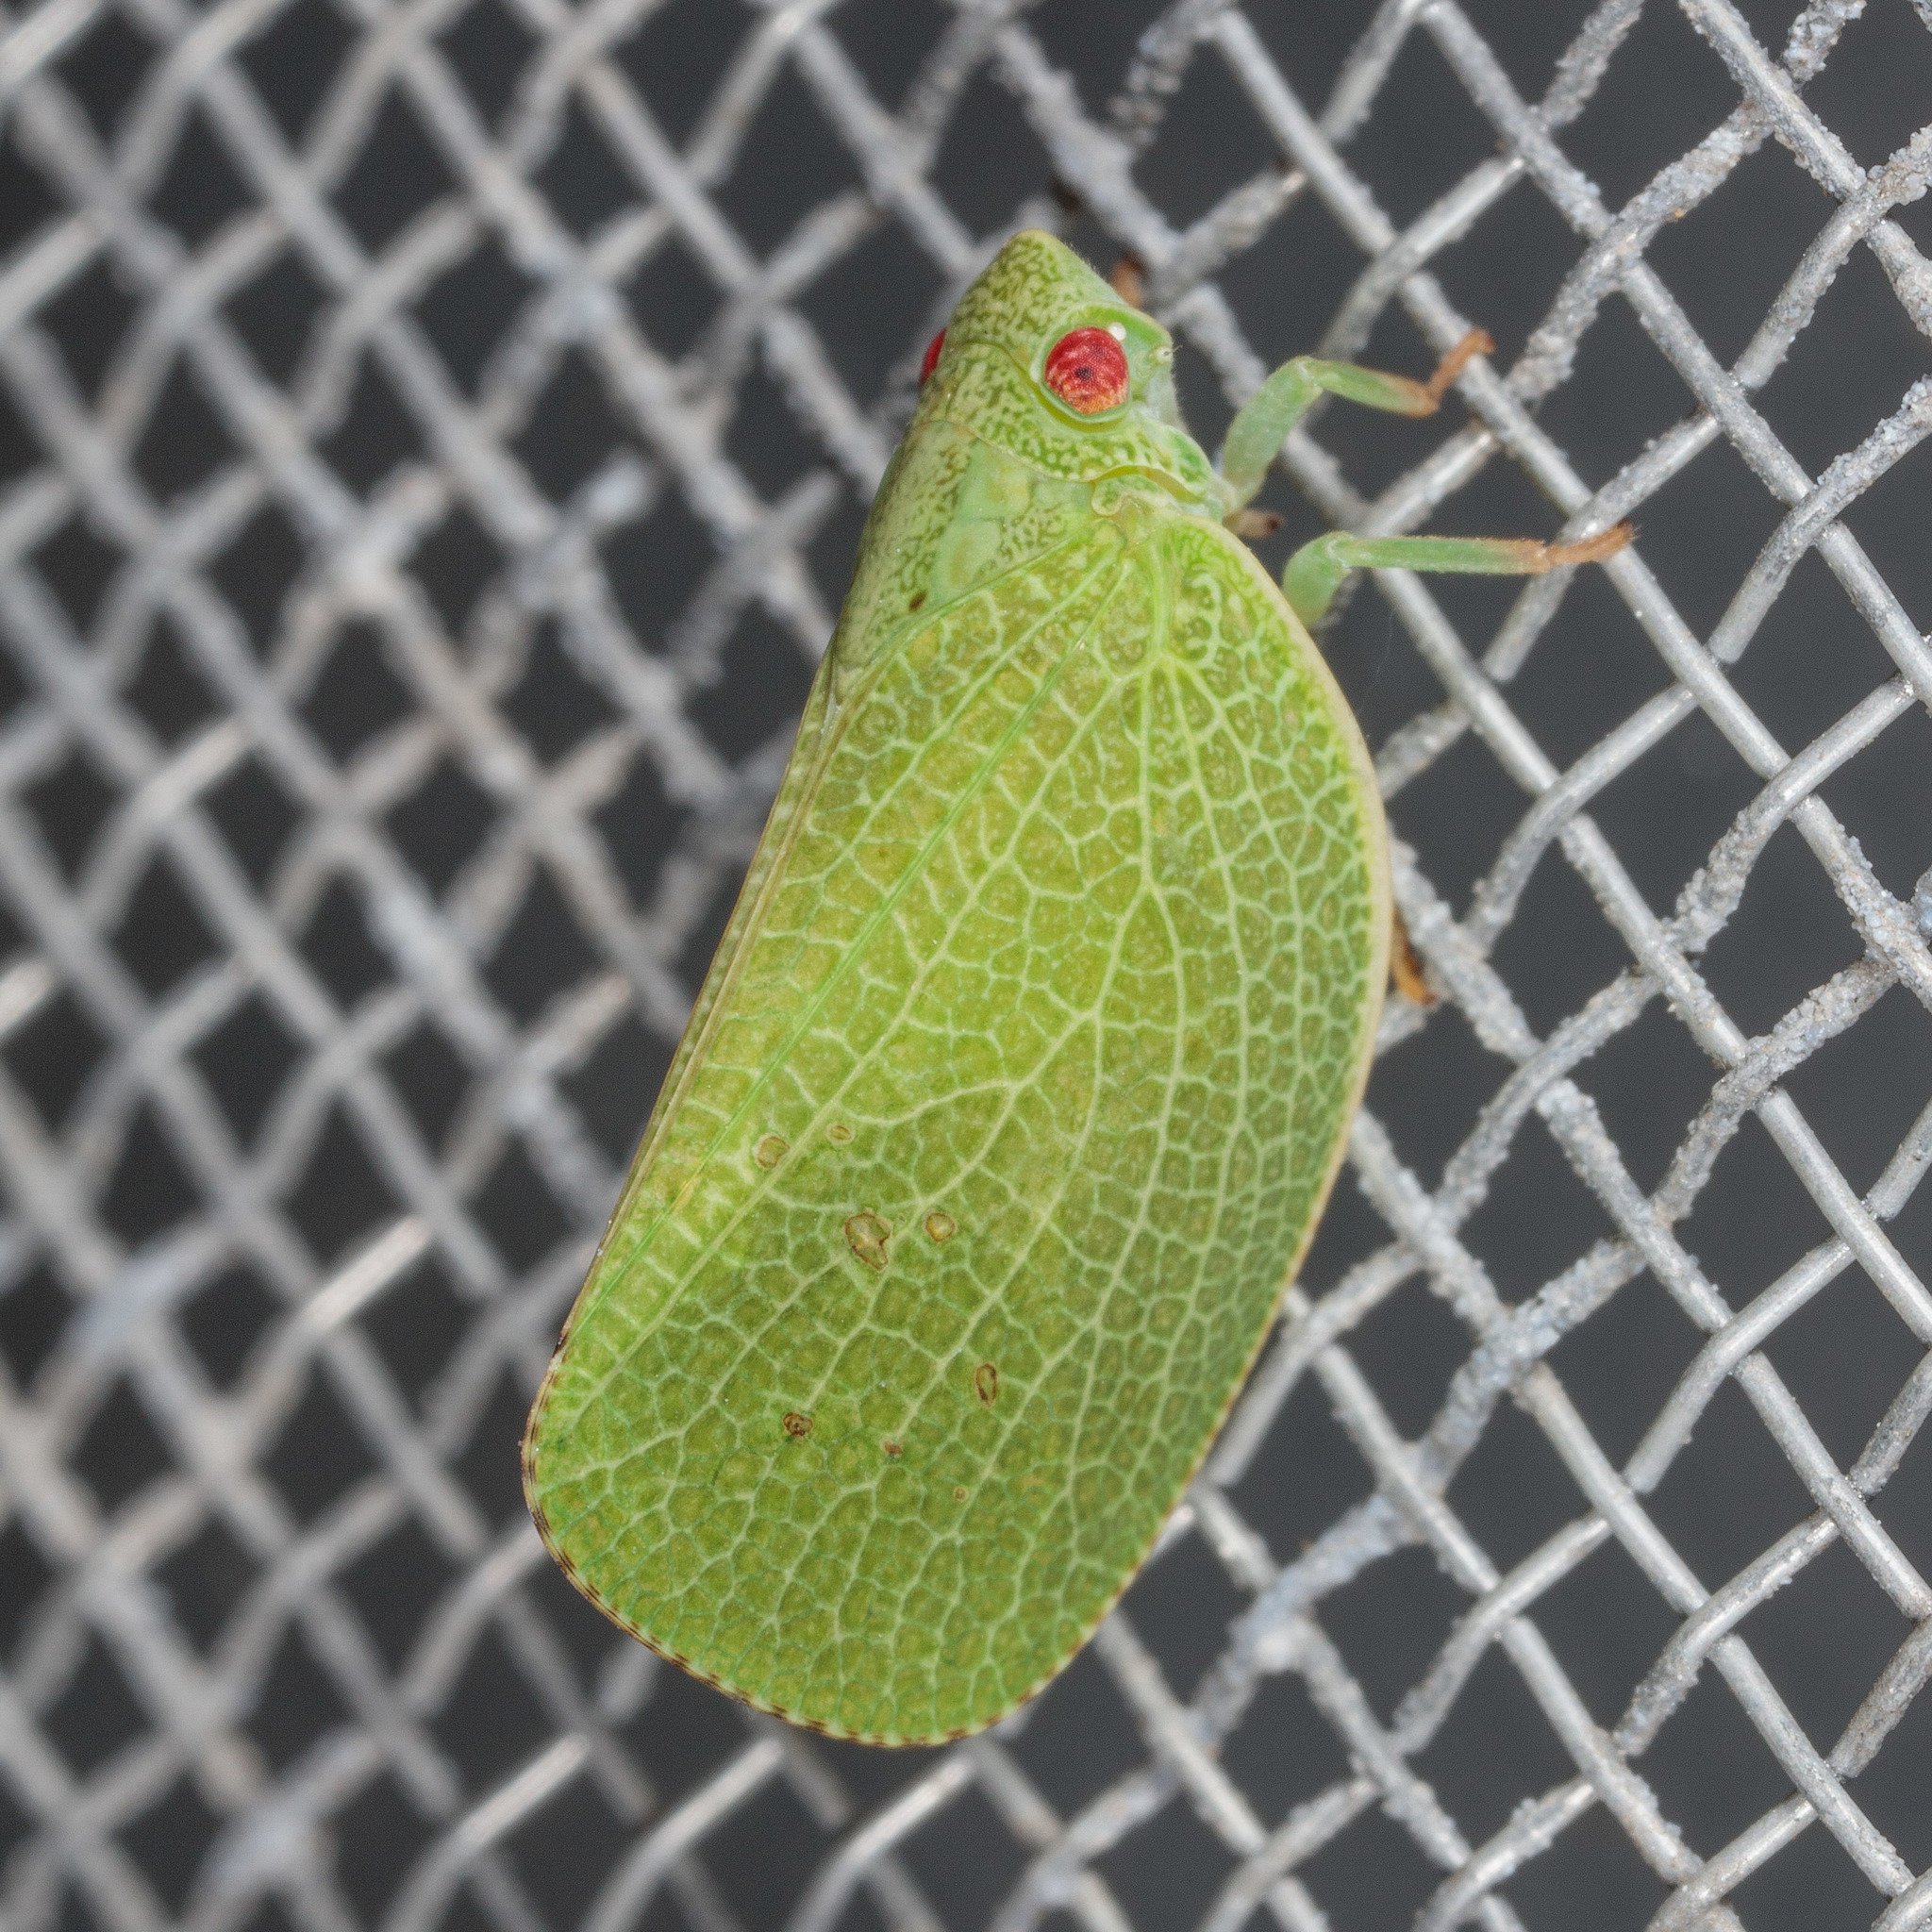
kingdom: Animalia
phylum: Arthropoda
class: Insecta
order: Hemiptera
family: Acanaloniidae
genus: Acanalonia
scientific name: Acanalonia conica
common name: Green cone-headed planthopper
